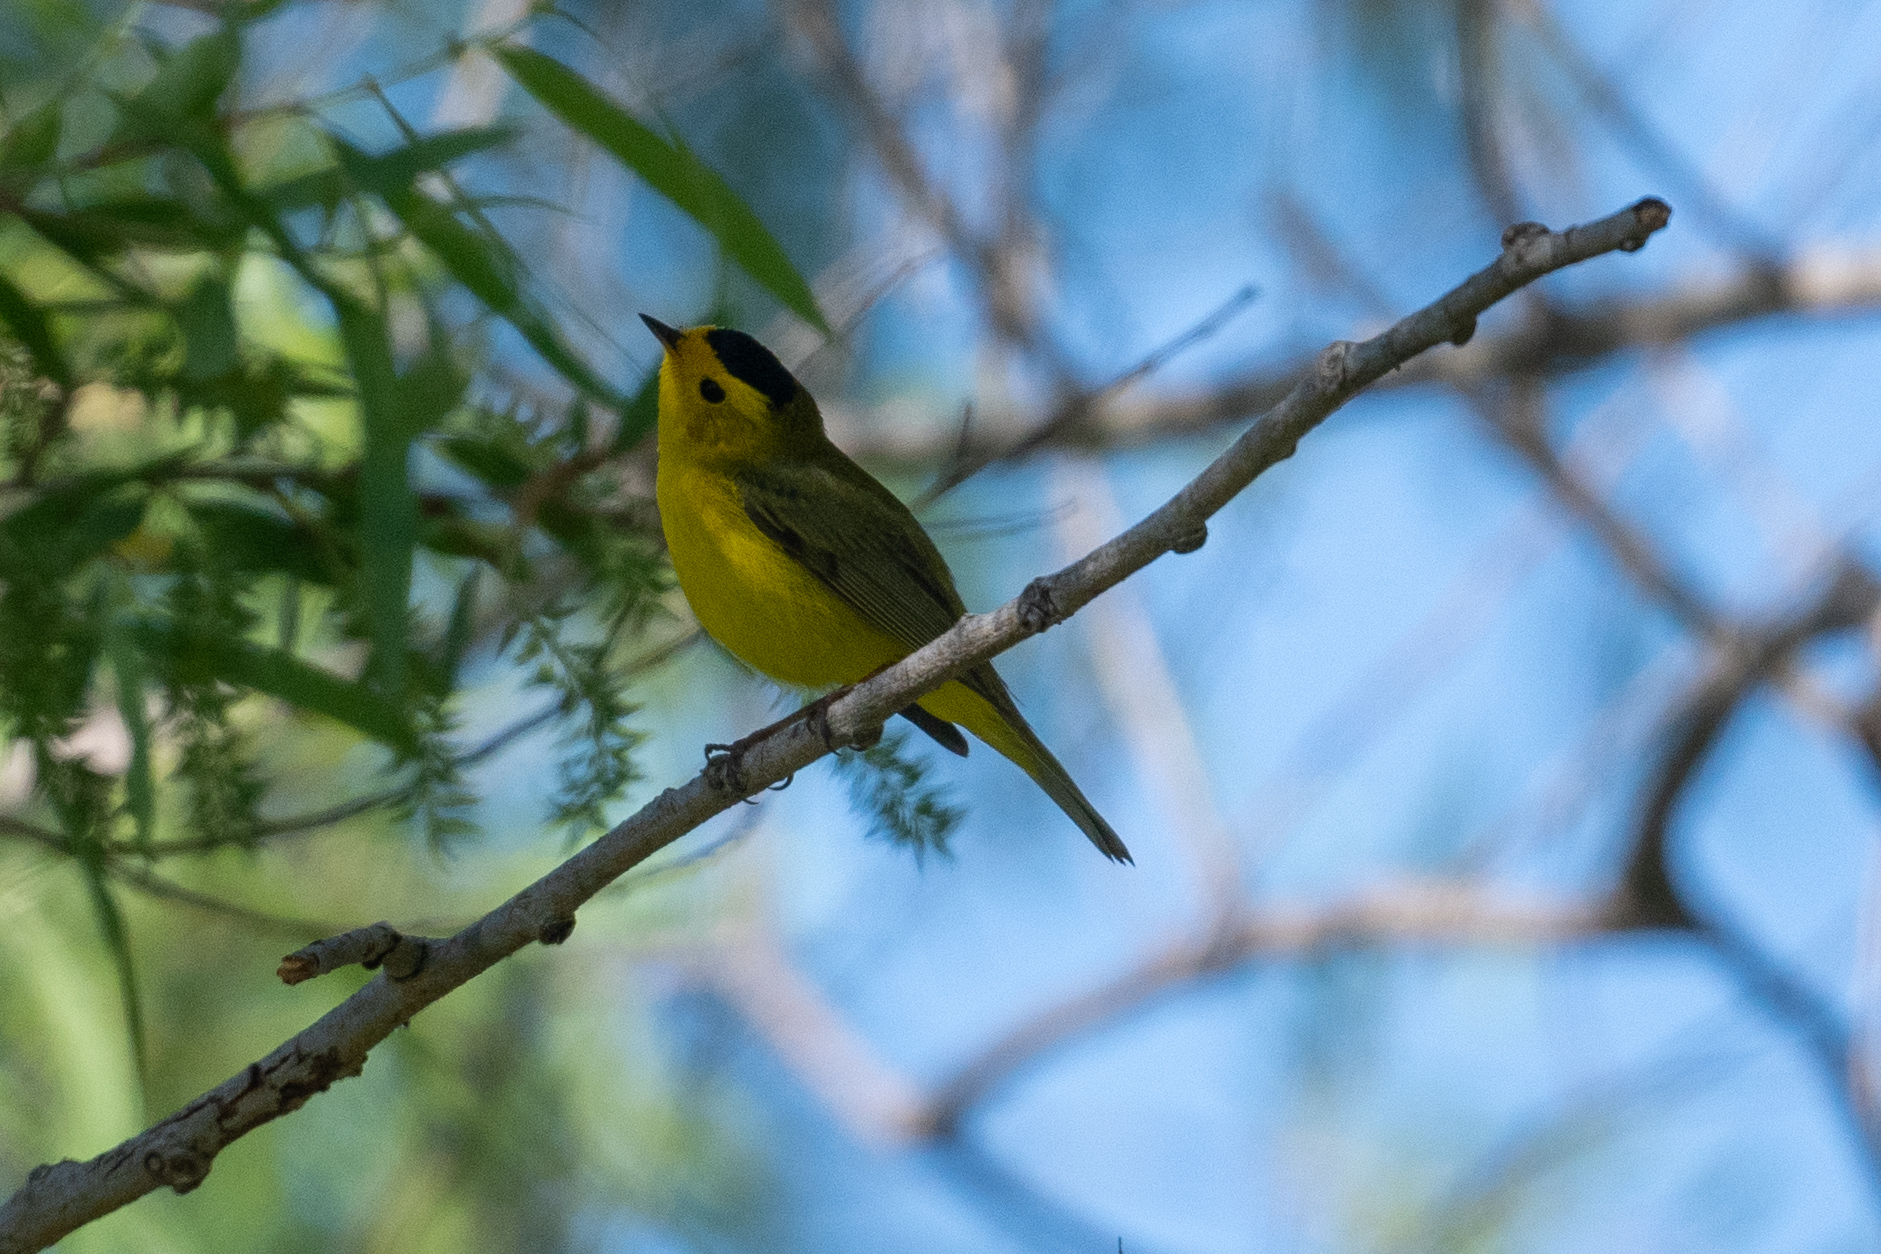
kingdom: Animalia
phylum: Chordata
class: Aves
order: Passeriformes
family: Parulidae
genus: Cardellina
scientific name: Cardellina pusilla
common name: Wilson's warbler
